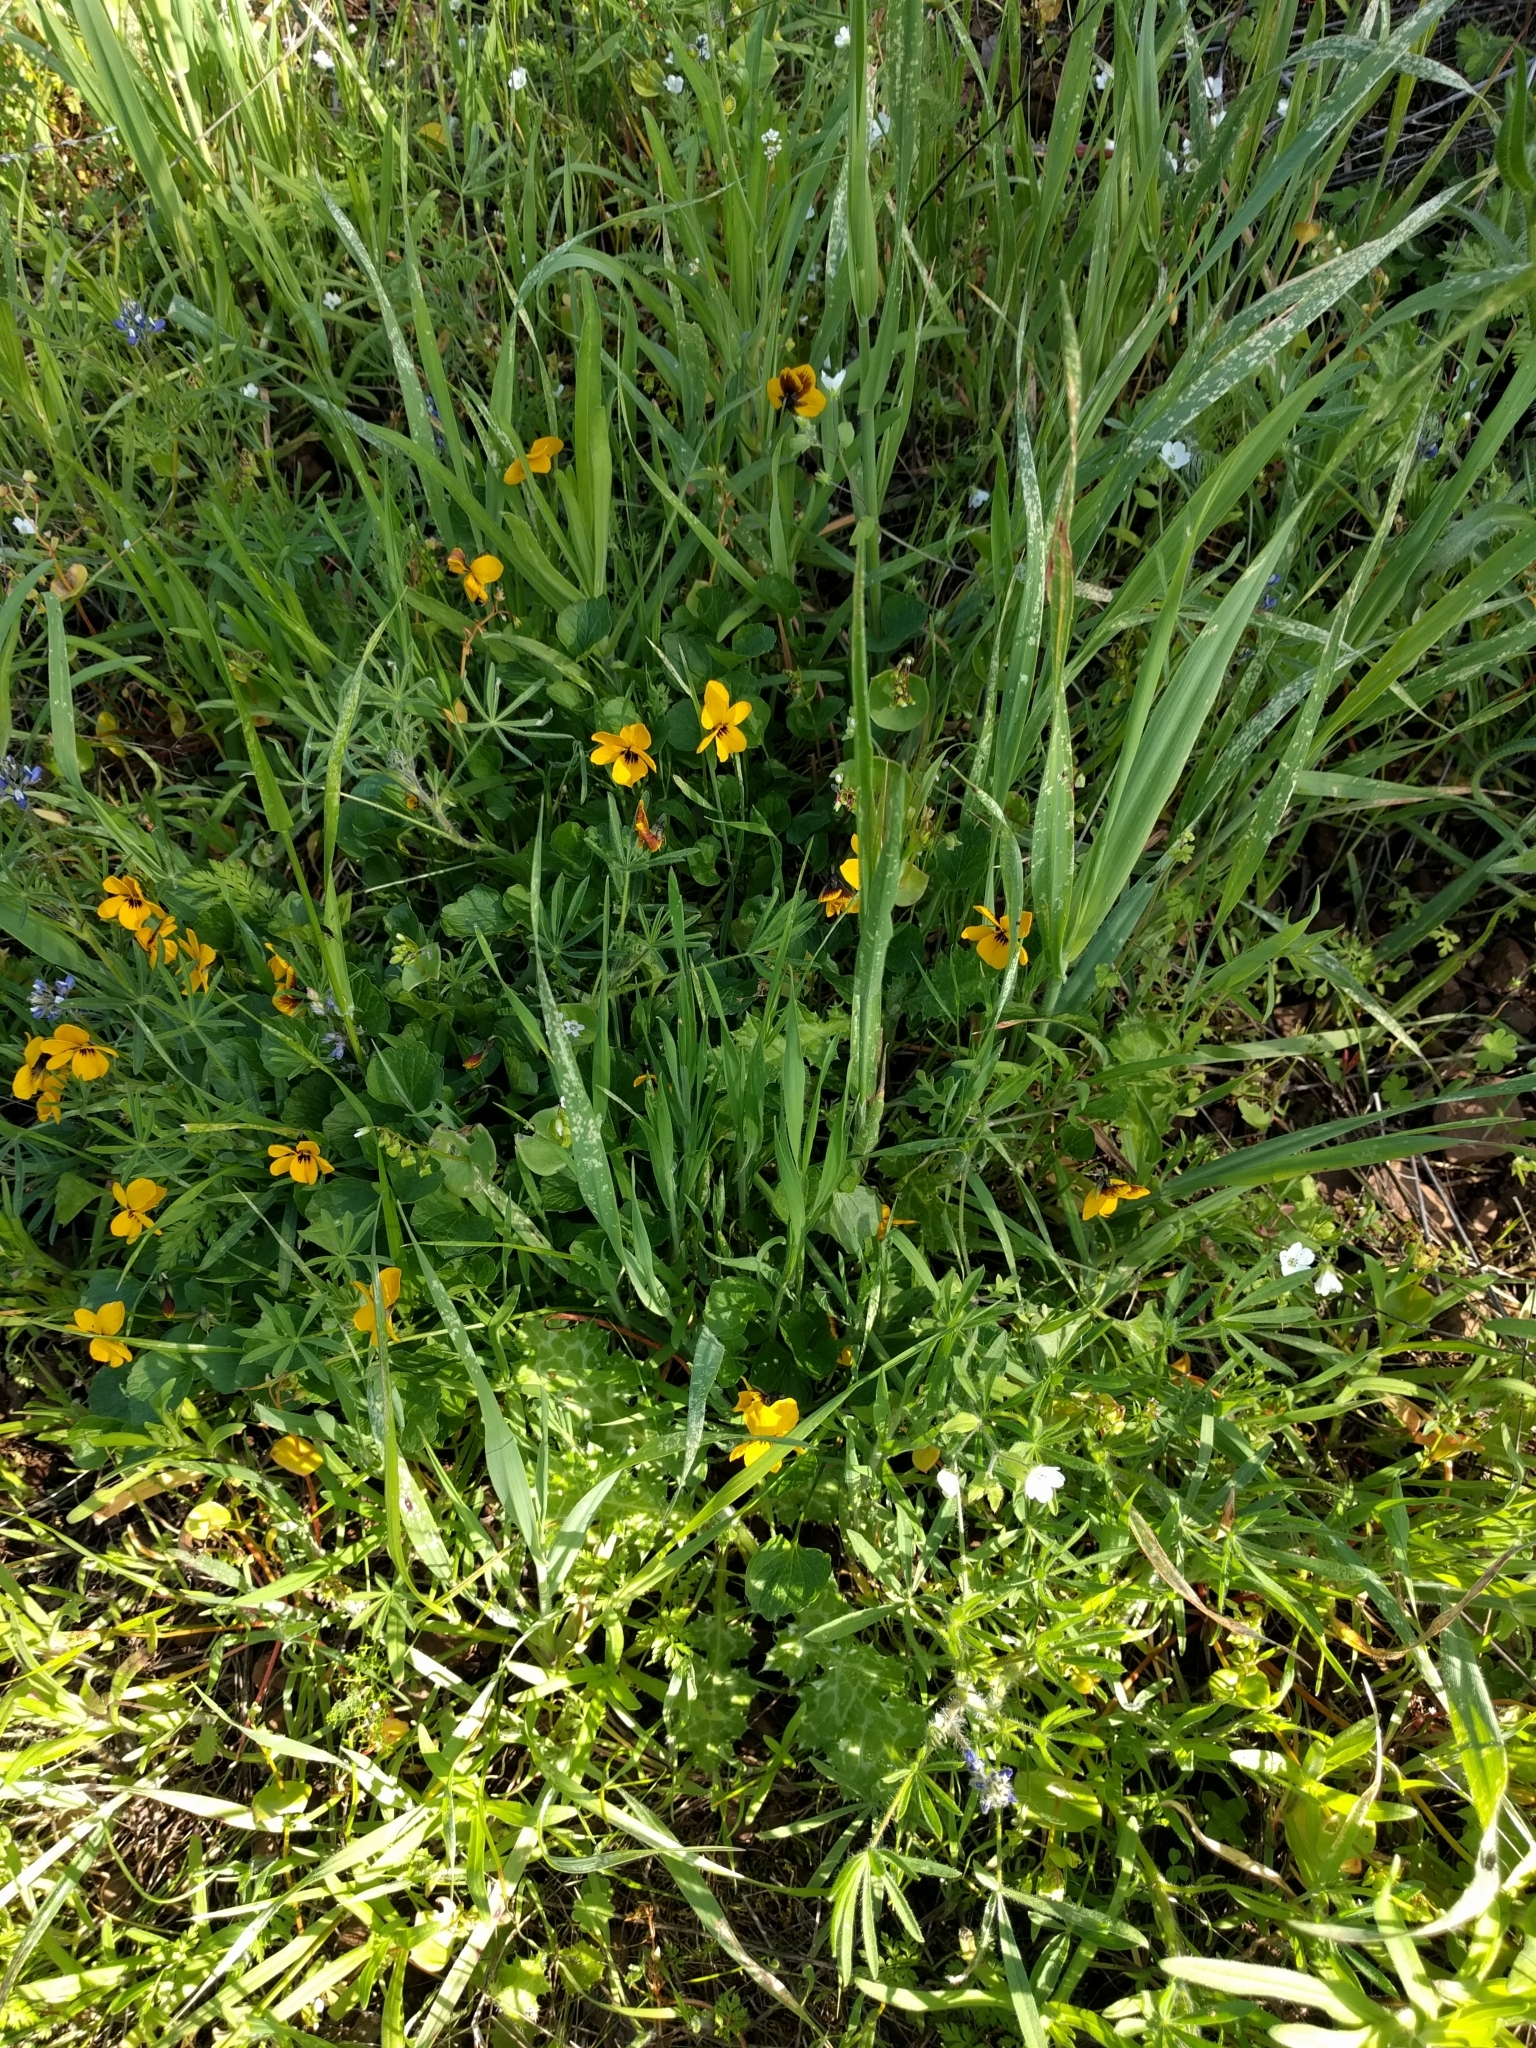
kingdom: Plantae
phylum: Tracheophyta
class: Magnoliopsida
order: Malpighiales
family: Violaceae
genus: Viola
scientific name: Viola pedunculata
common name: California golden violet
